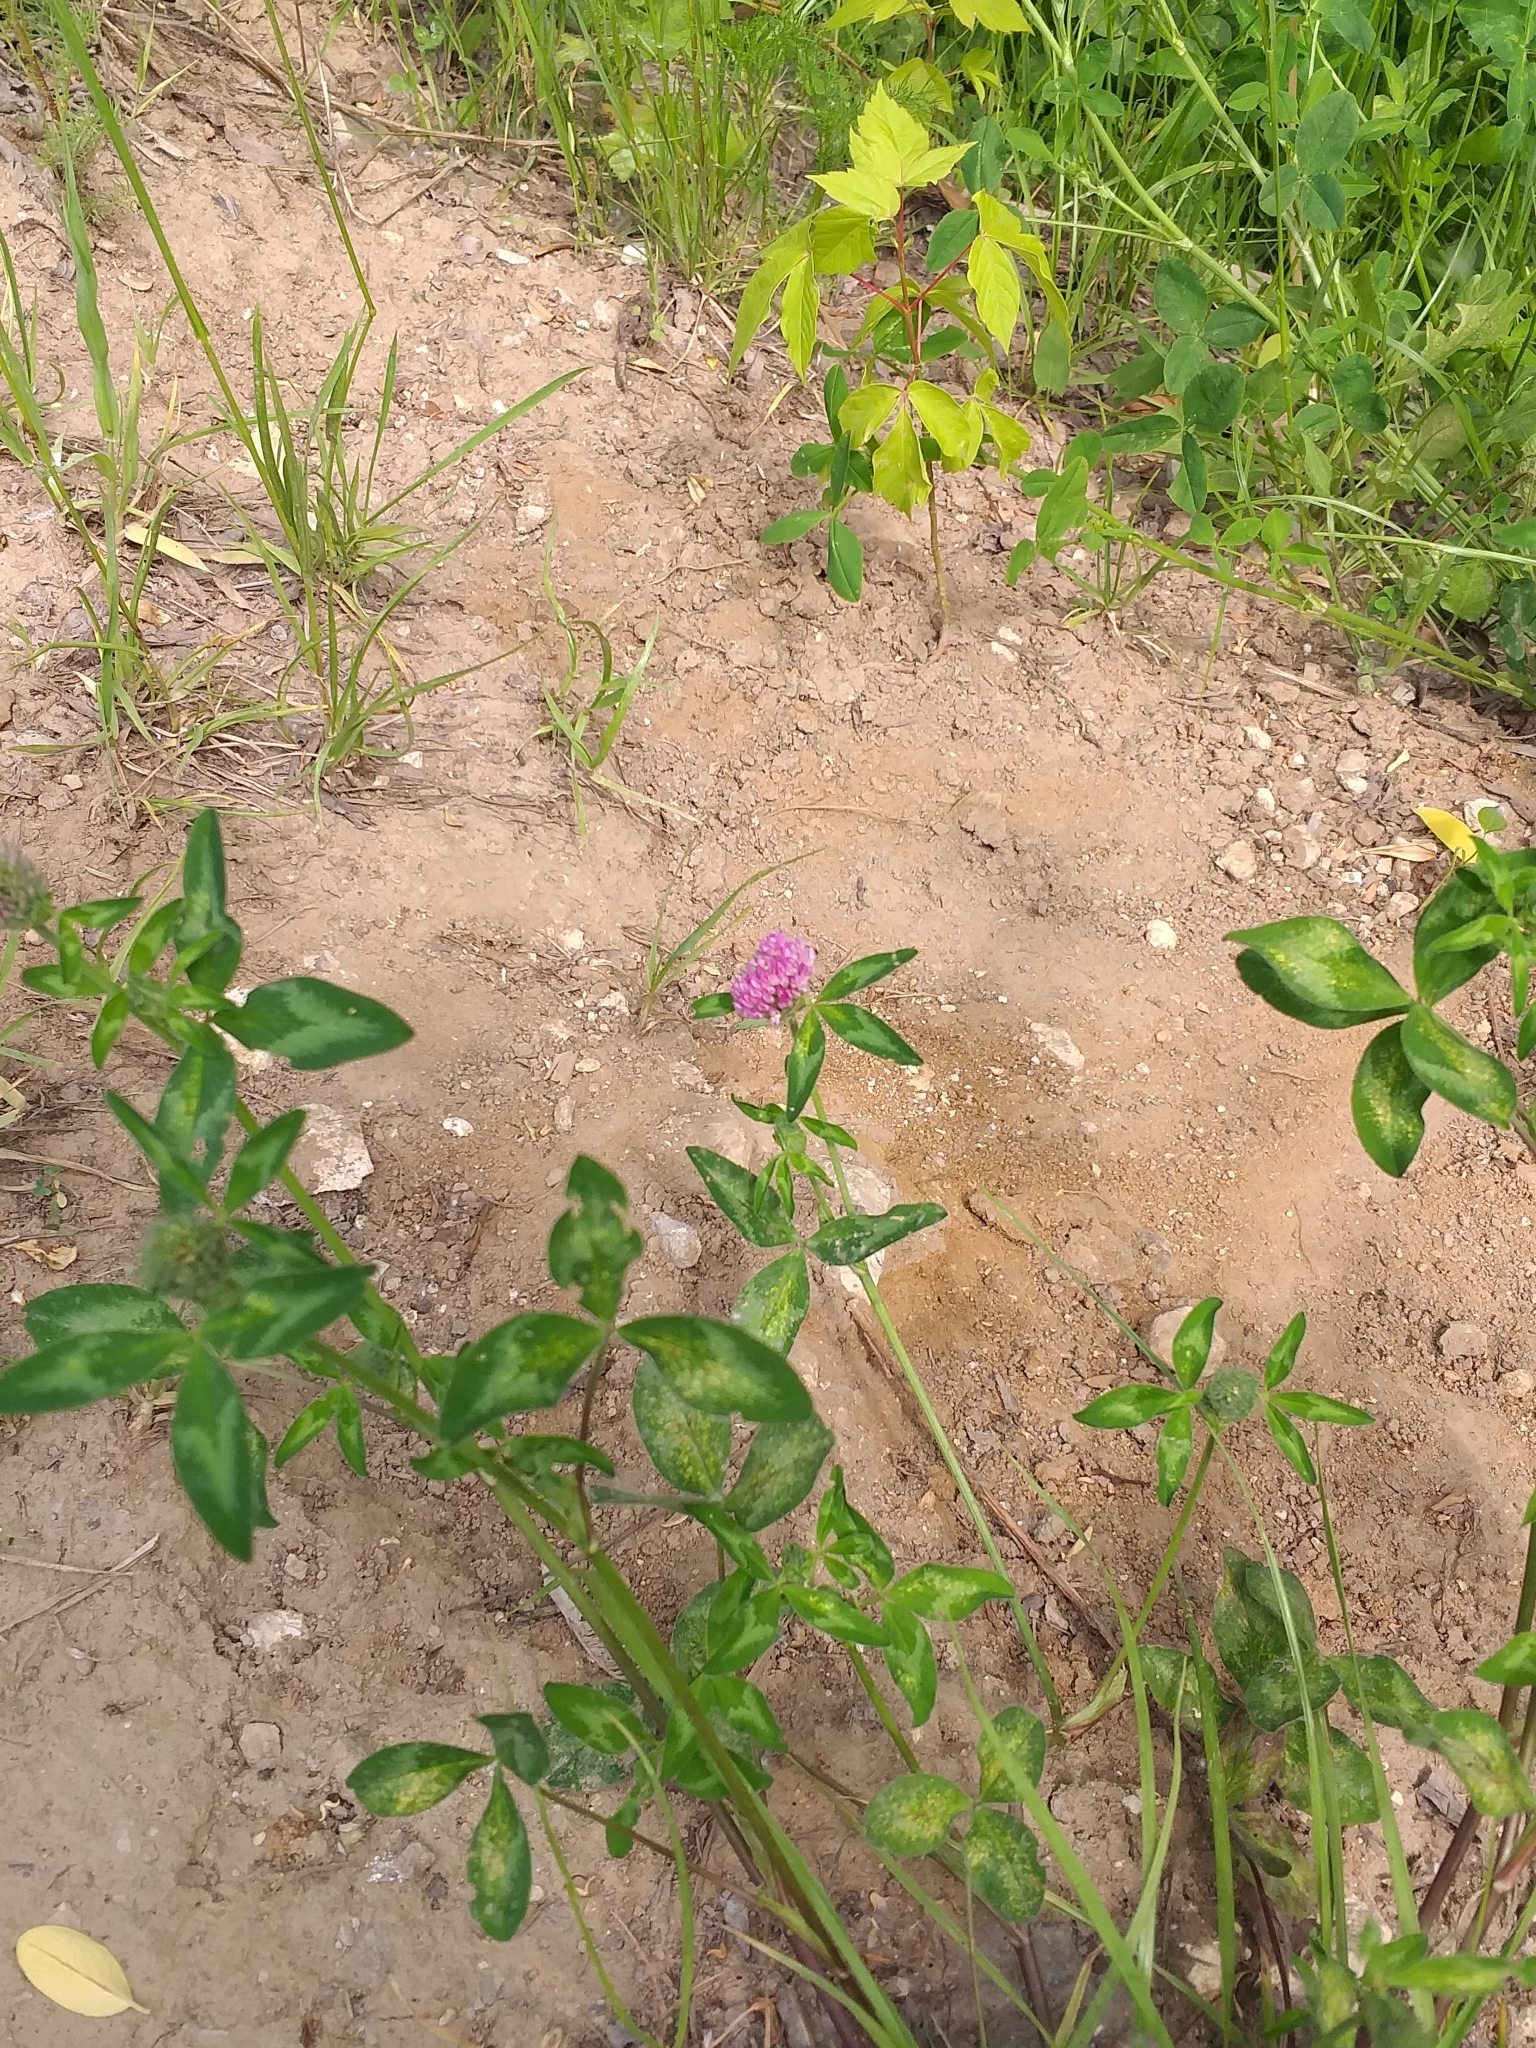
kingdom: Plantae
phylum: Tracheophyta
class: Magnoliopsida
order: Fabales
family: Fabaceae
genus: Trifolium
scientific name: Trifolium pratense
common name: Red clover
